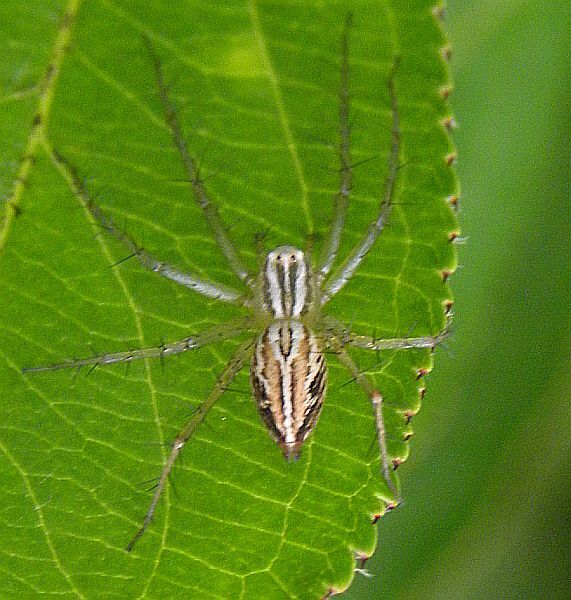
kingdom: Animalia
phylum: Arthropoda
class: Arachnida
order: Araneae
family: Oxyopidae
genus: Oxyopes
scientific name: Oxyopes salticus
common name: Lynx spiders
